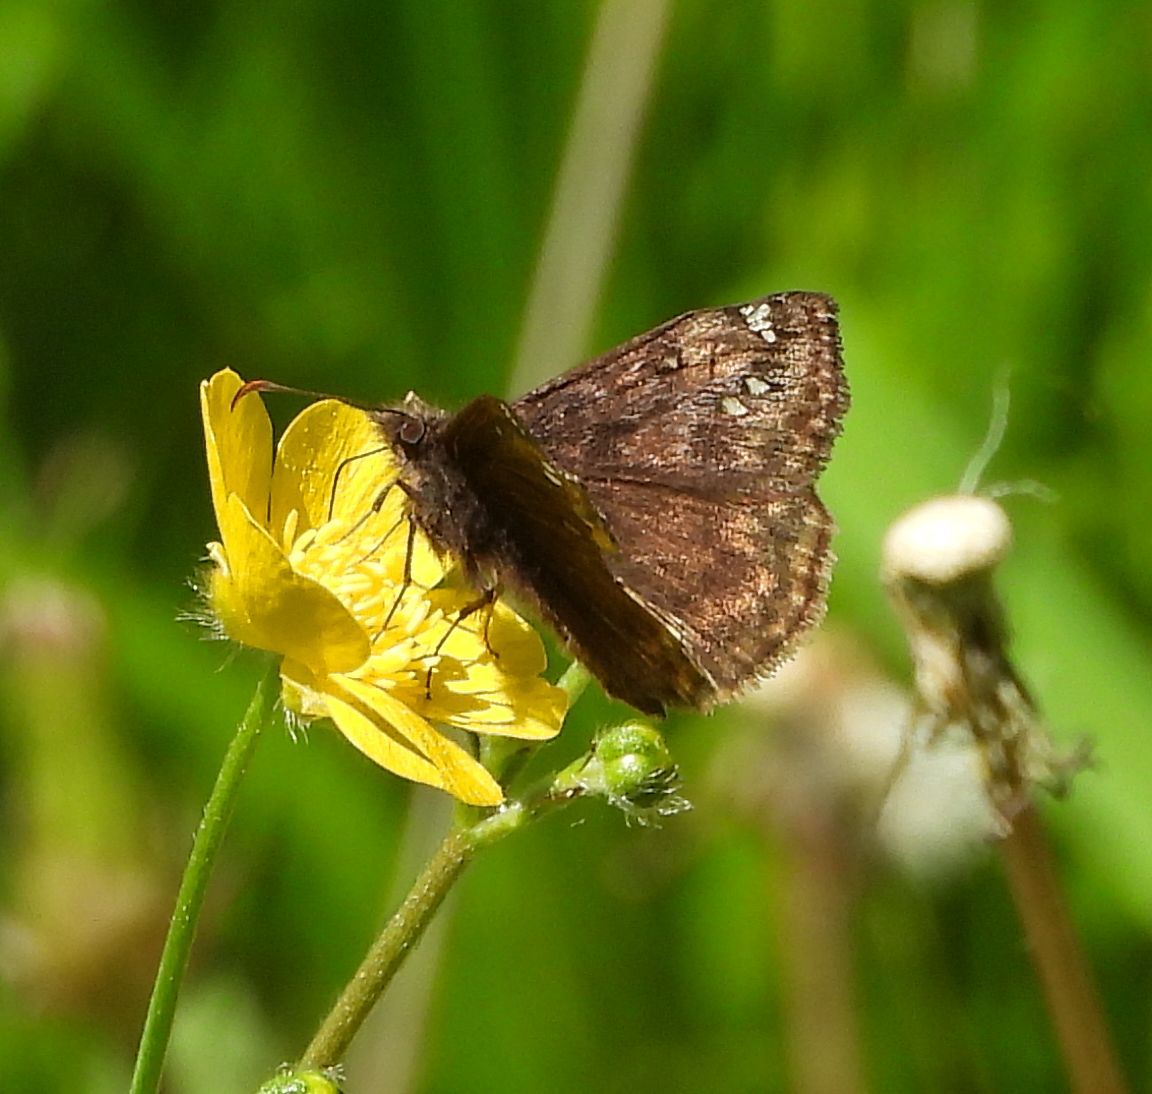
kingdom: Animalia
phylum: Arthropoda
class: Insecta
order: Lepidoptera
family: Hesperiidae
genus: Erynnis
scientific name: Erynnis juvenalis
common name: Juvenal's duskywing
